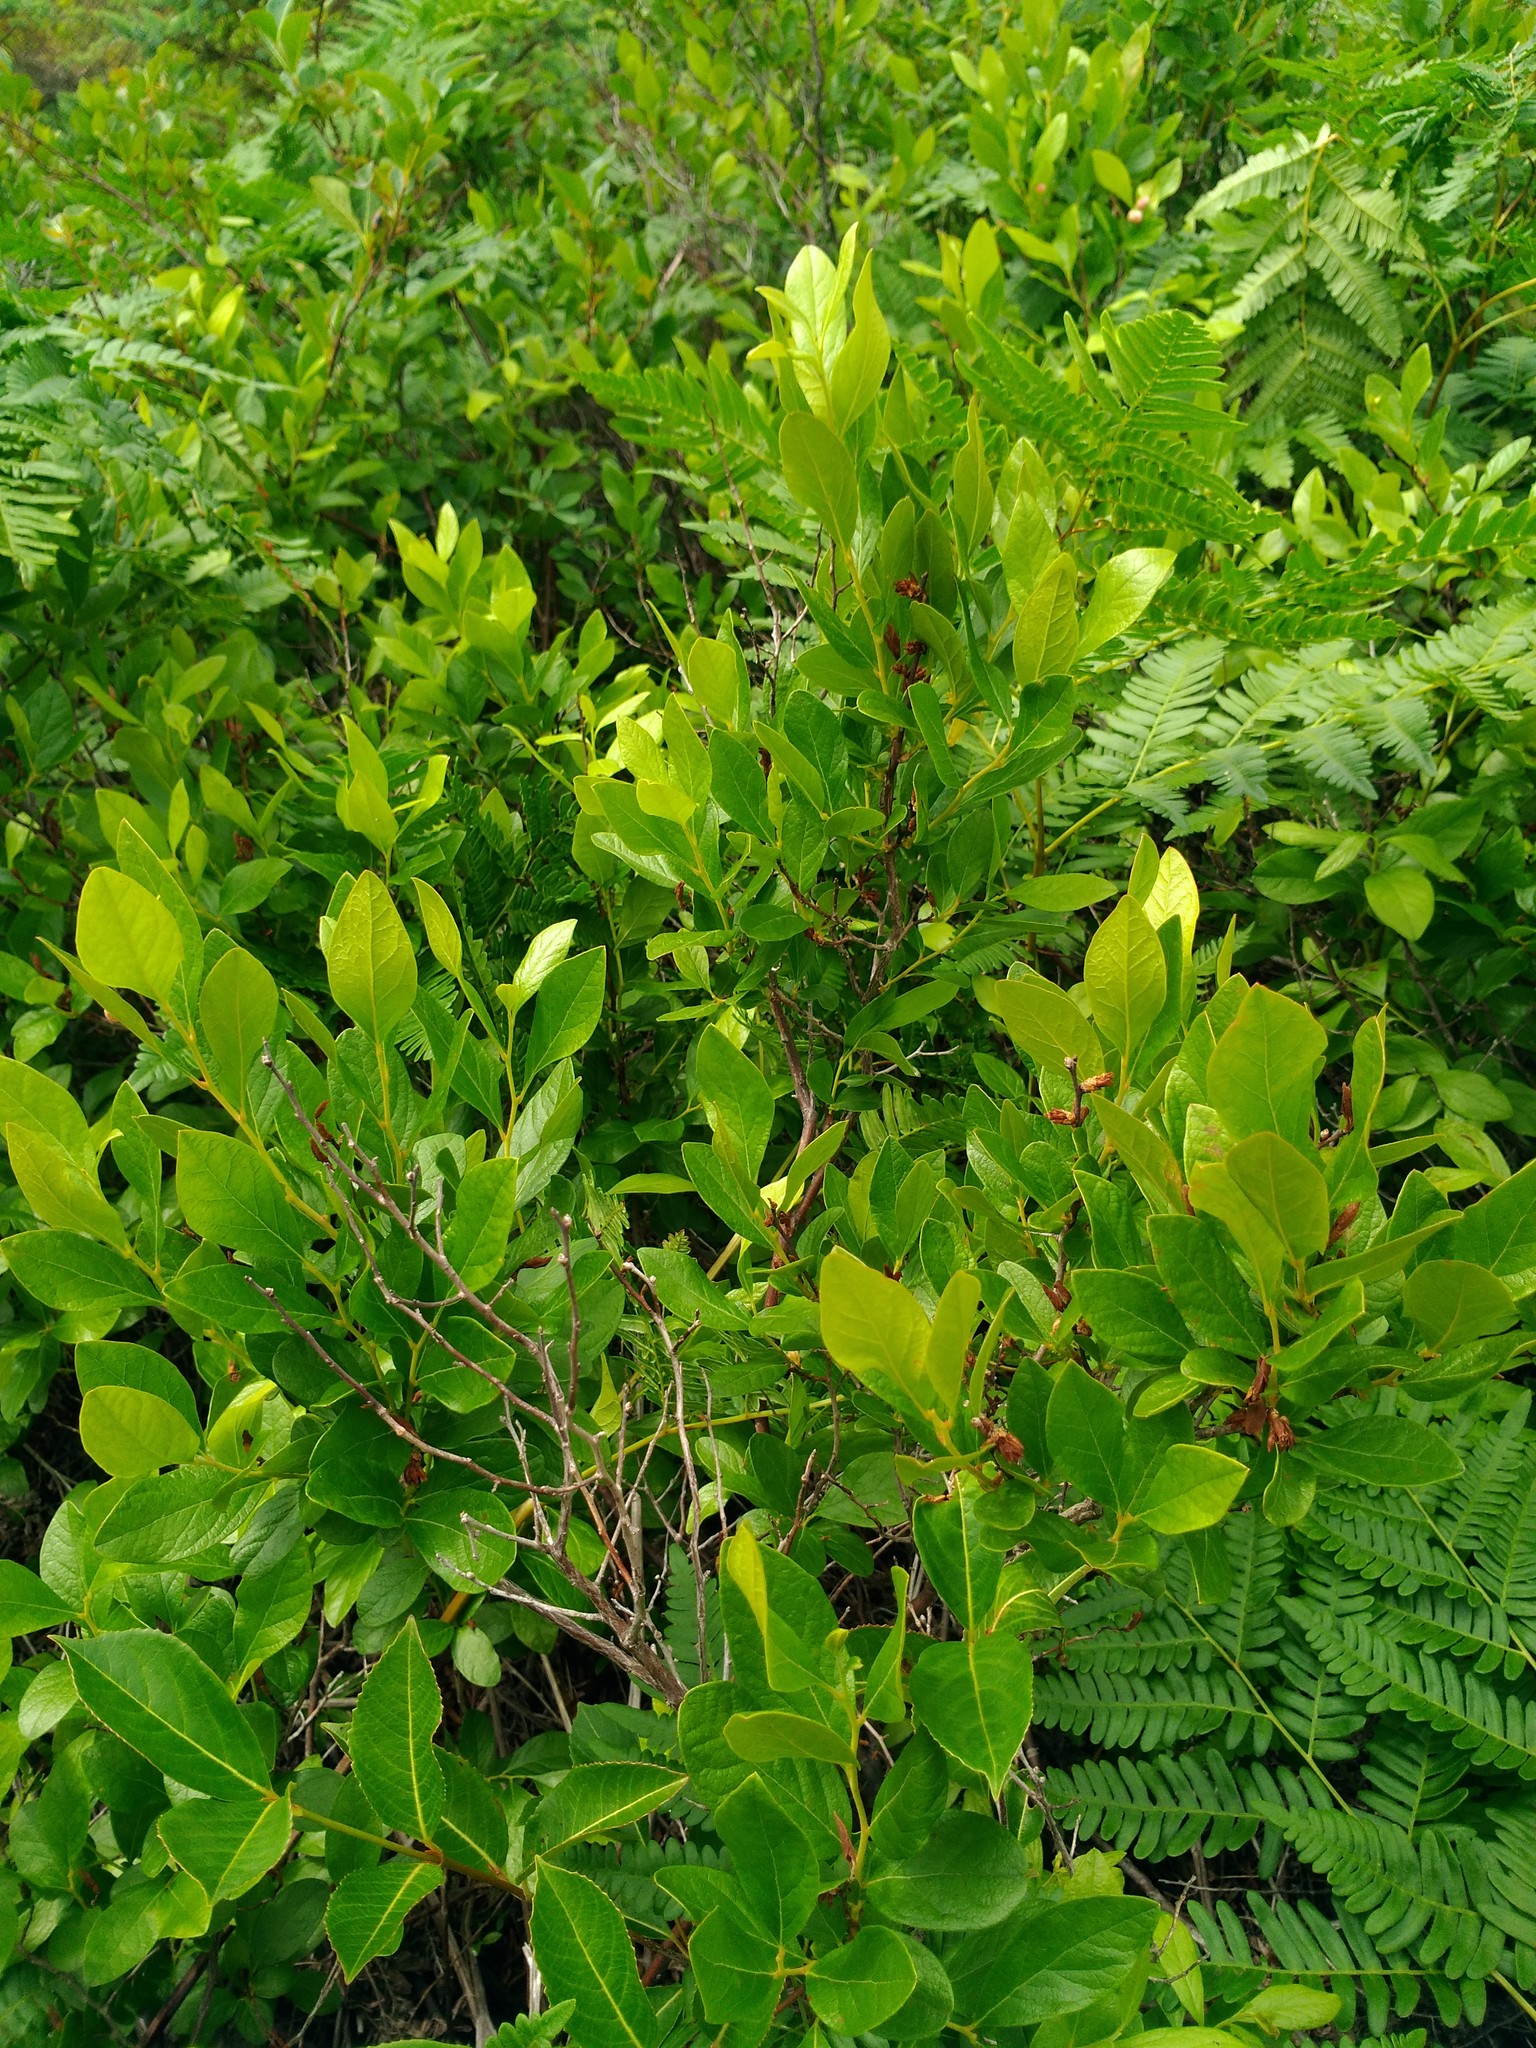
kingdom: Plantae
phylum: Tracheophyta
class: Magnoliopsida
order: Ericales
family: Ericaceae
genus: Gaylussacia
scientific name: Gaylussacia baccata
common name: Black huckleberry
